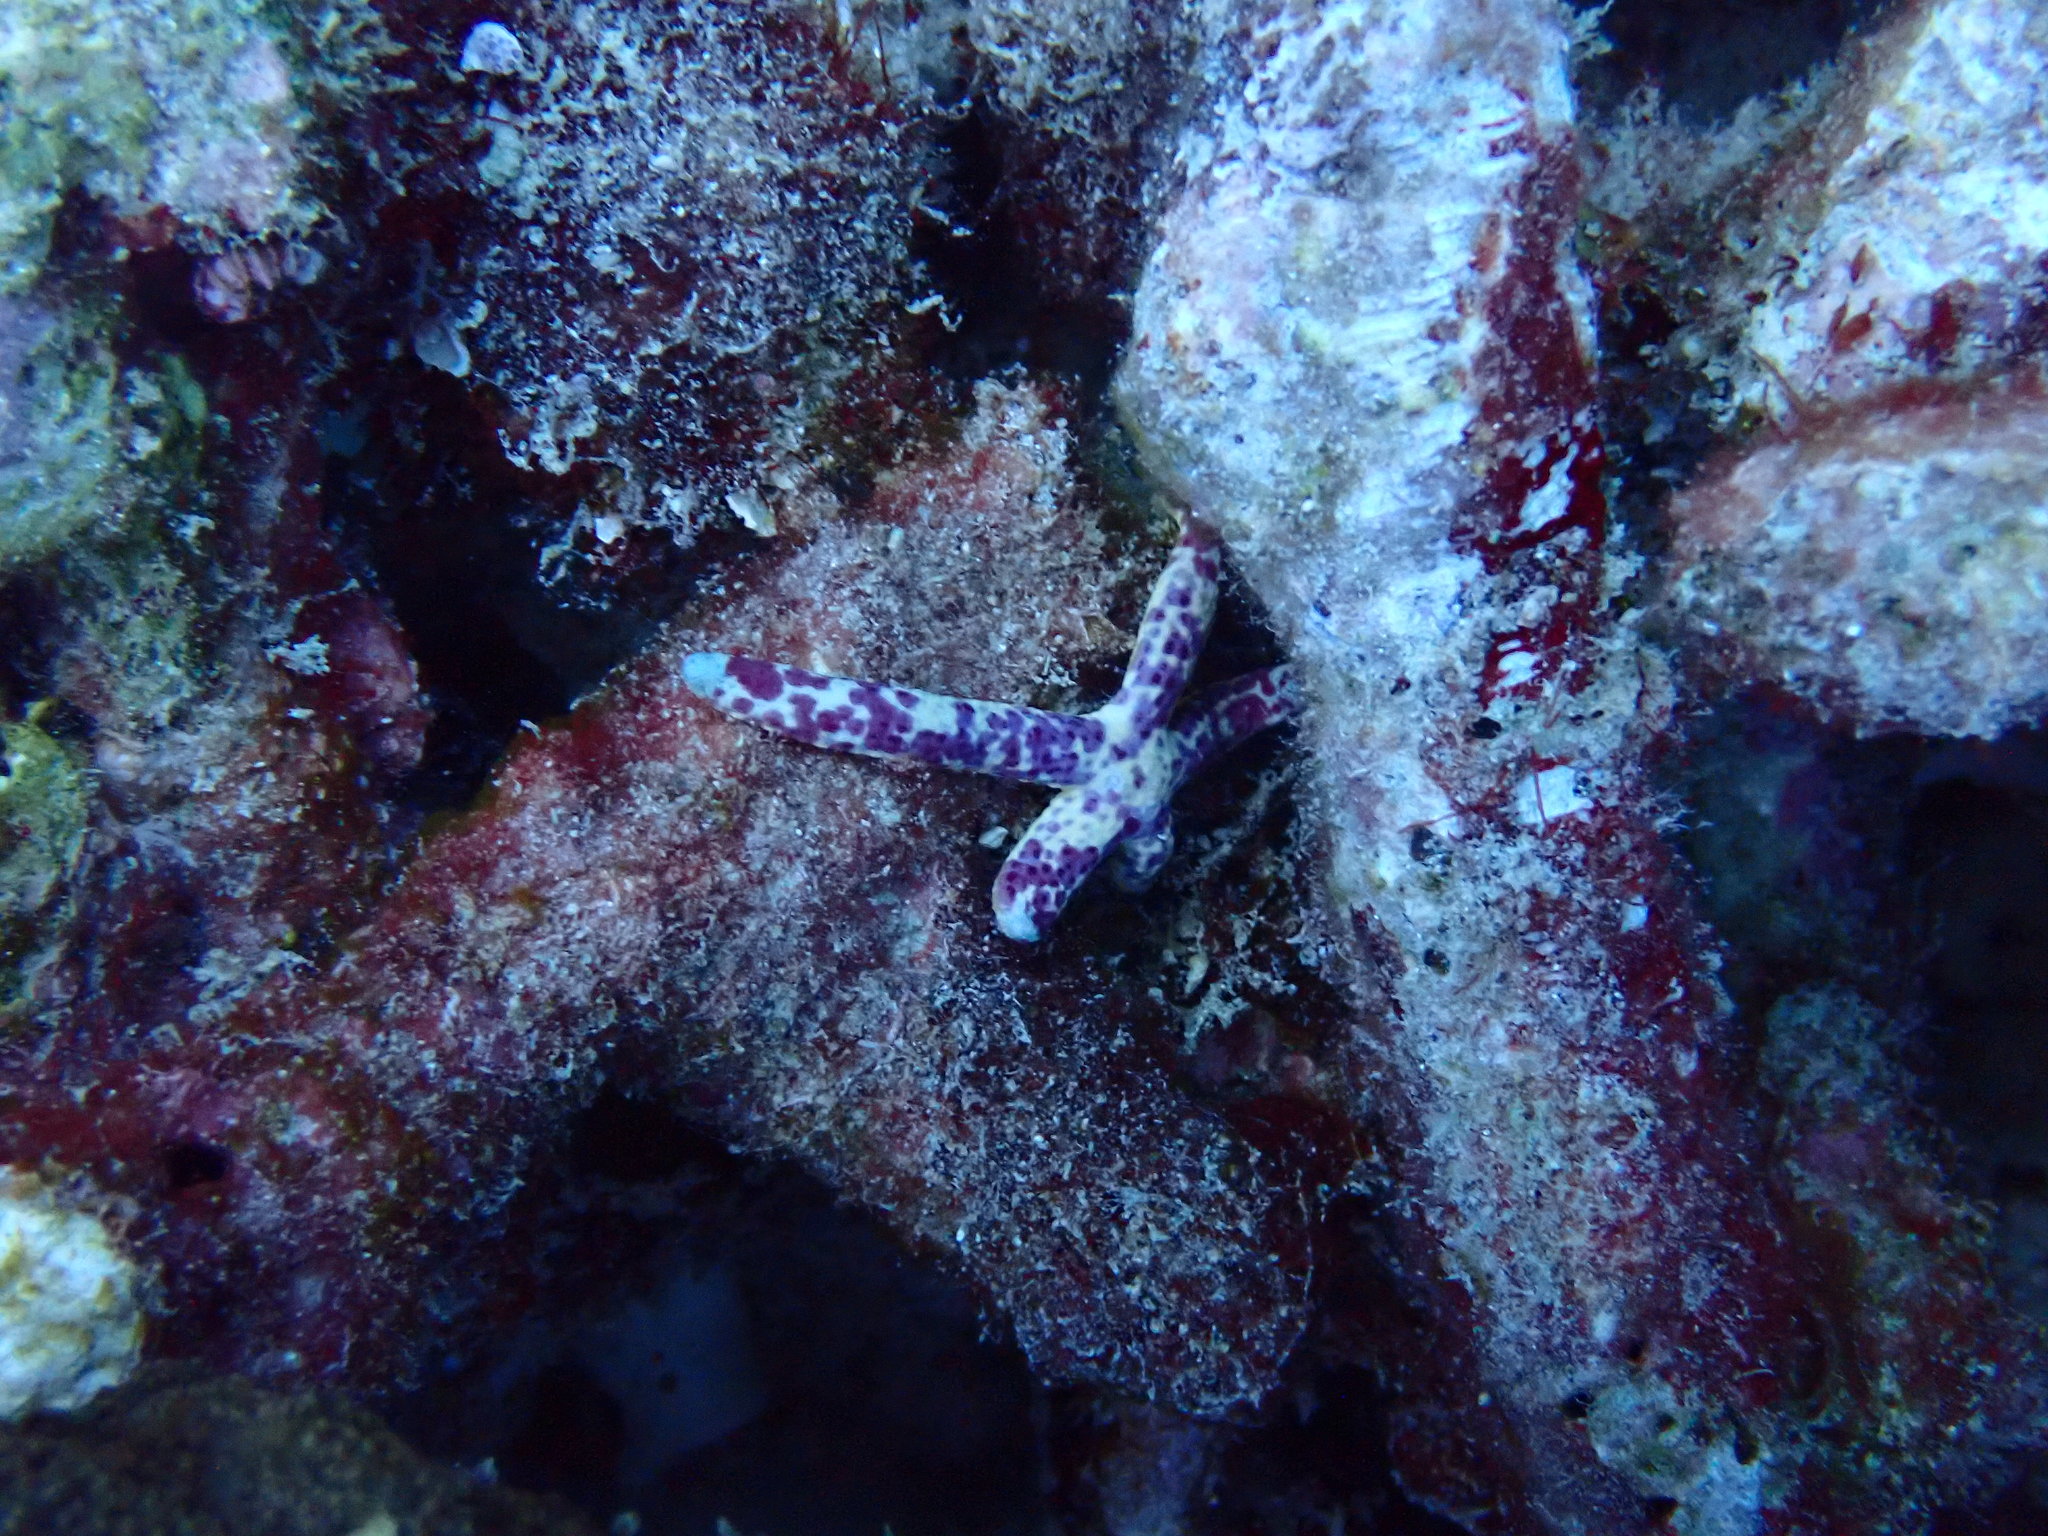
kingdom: Animalia
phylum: Echinodermata
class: Asteroidea
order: Valvatida
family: Ophidiasteridae
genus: Linckia
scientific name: Linckia multifora
